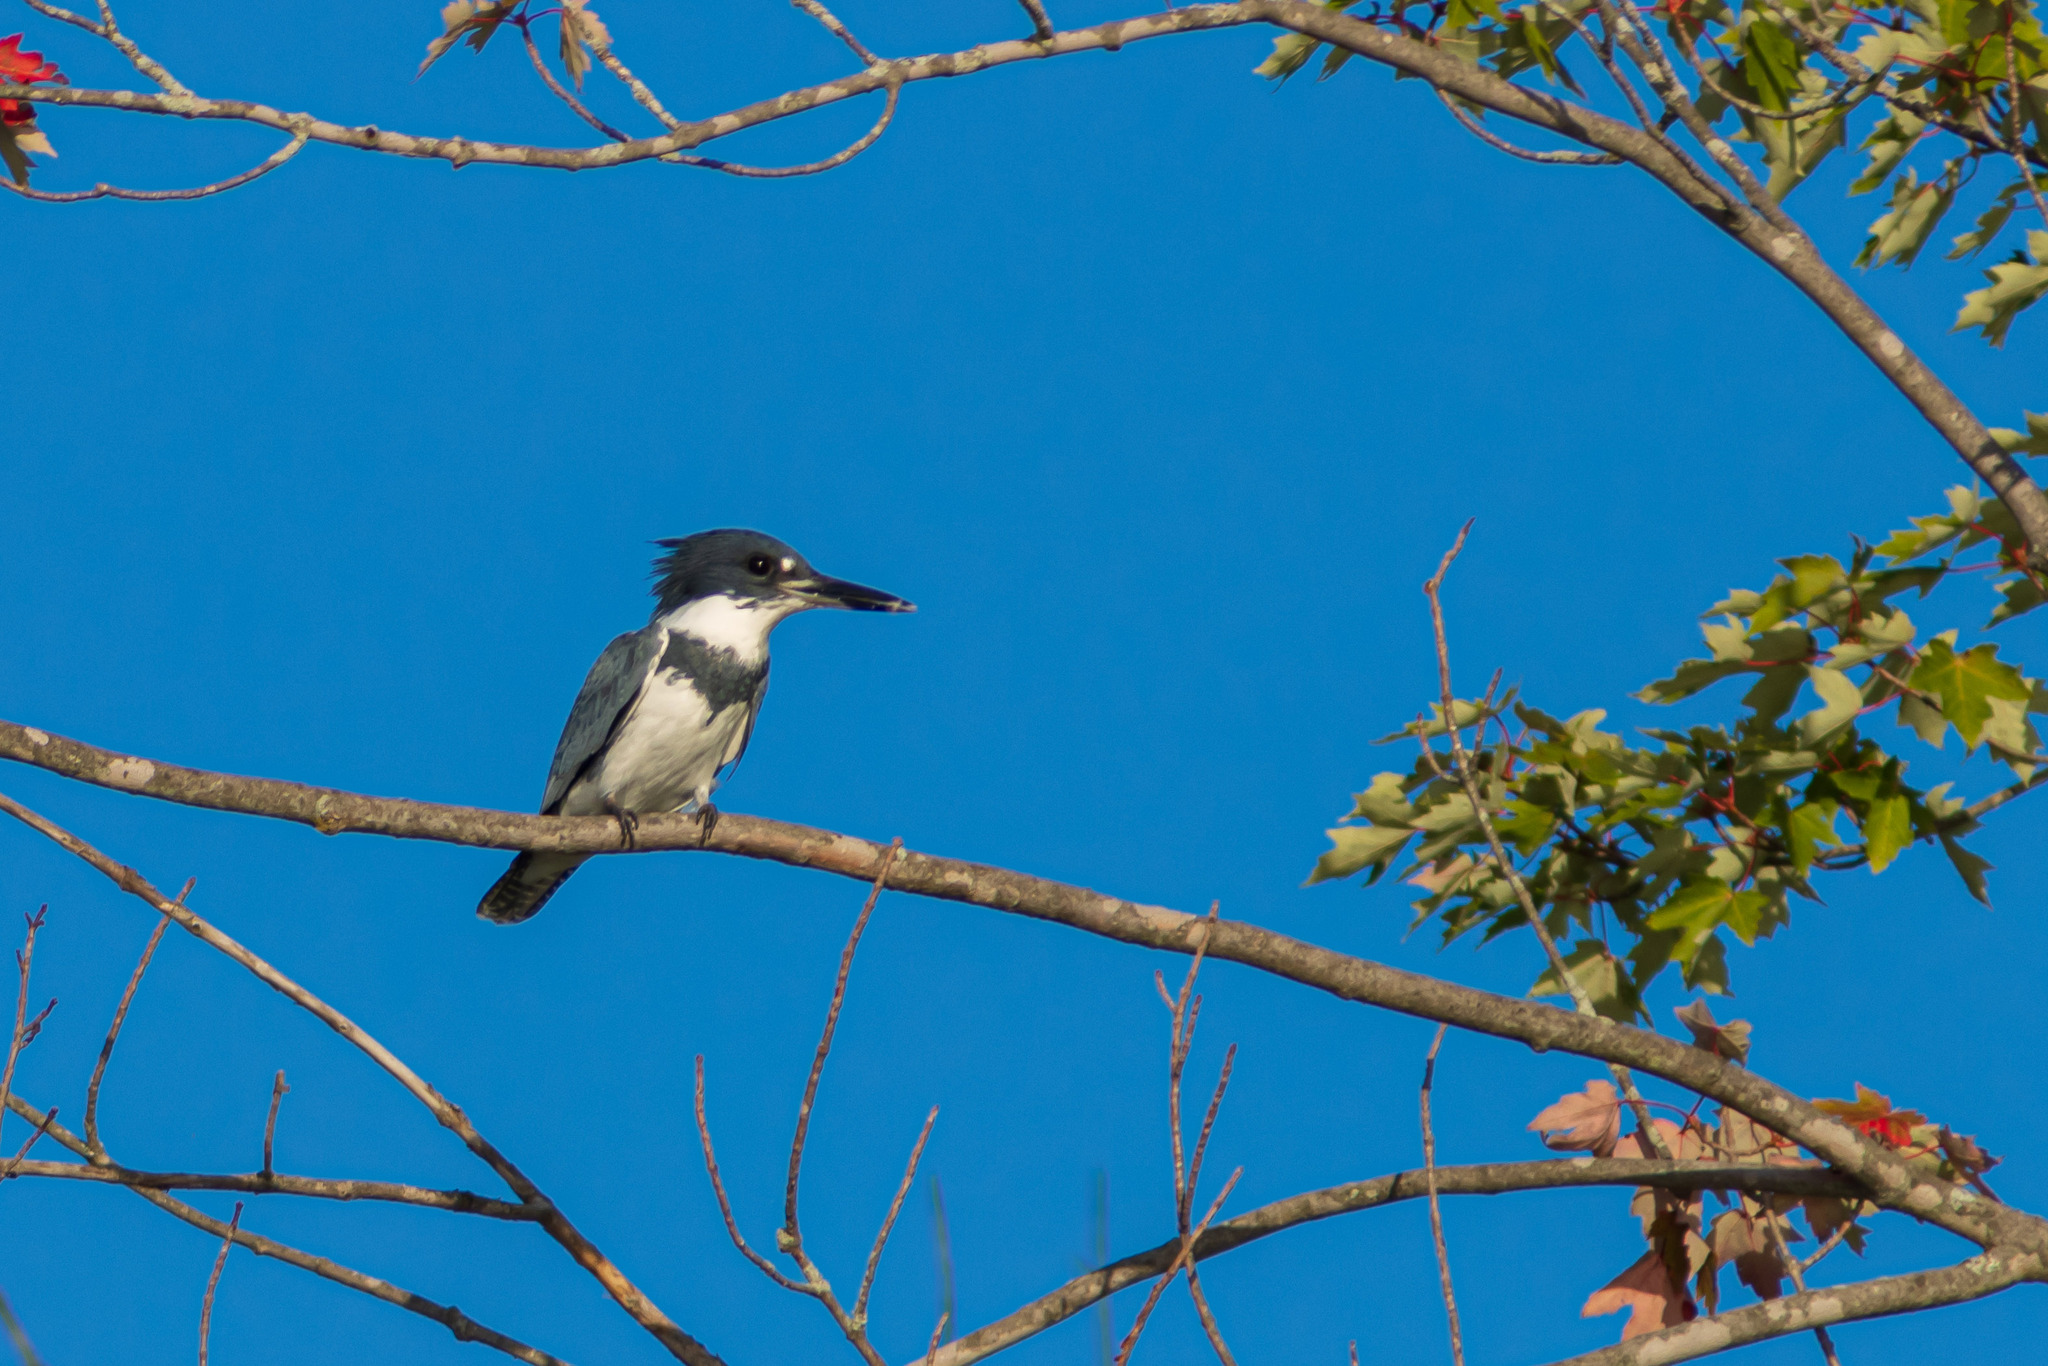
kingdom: Animalia
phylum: Chordata
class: Aves
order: Coraciiformes
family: Alcedinidae
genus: Megaceryle
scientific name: Megaceryle alcyon
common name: Belted kingfisher
